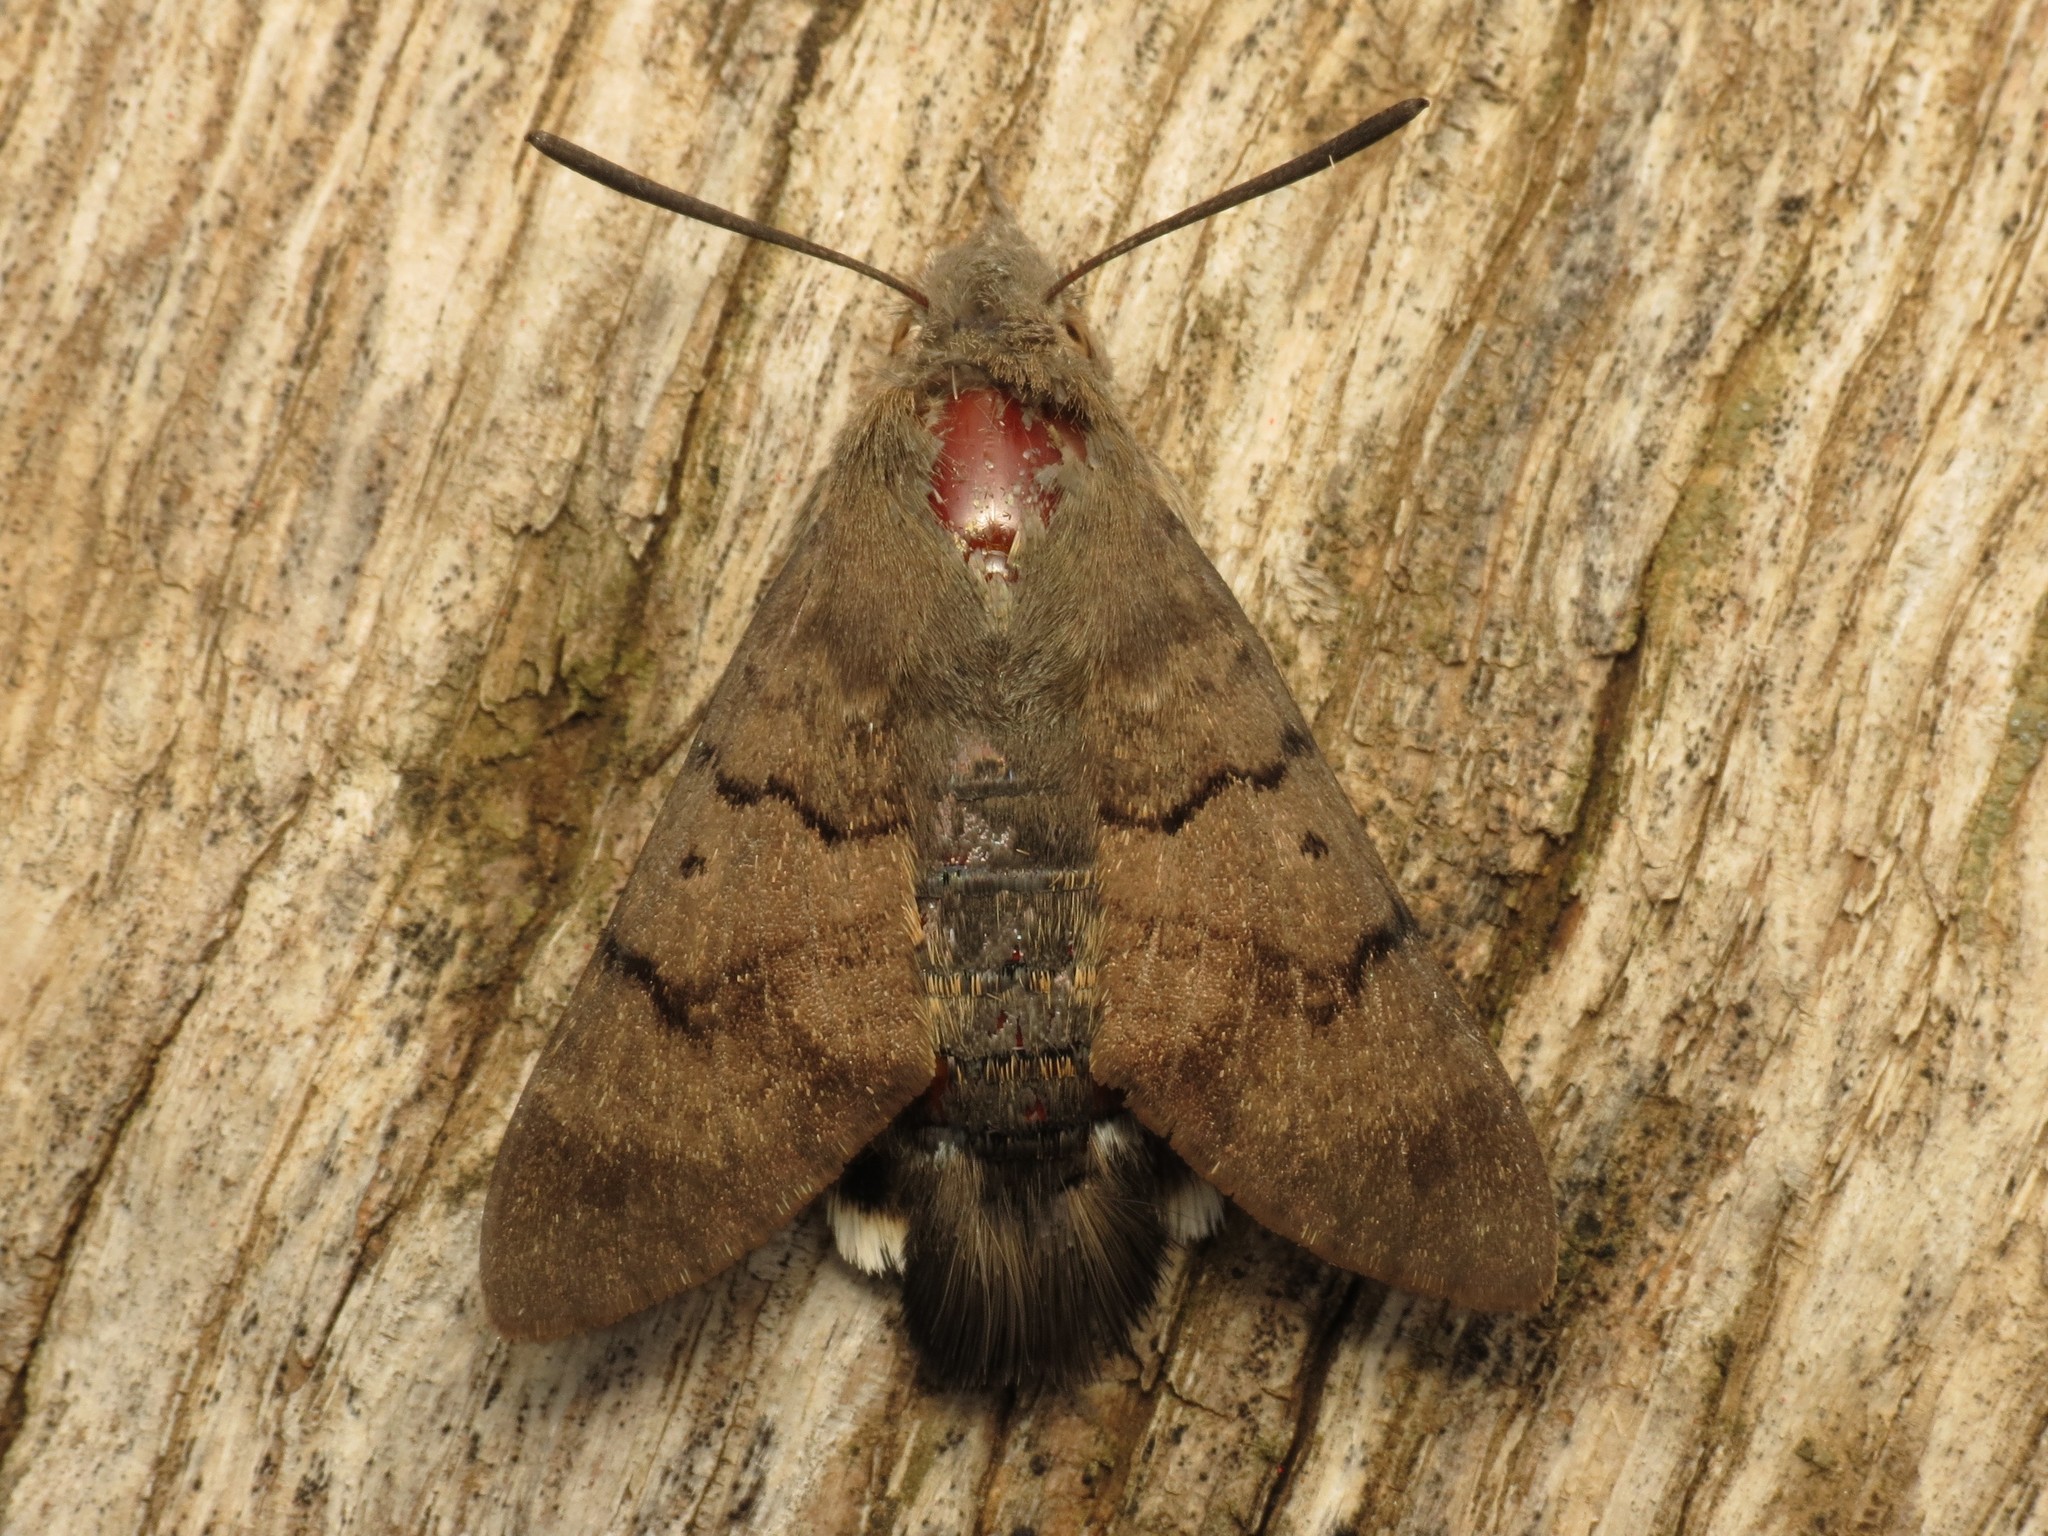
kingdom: Animalia
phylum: Arthropoda
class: Insecta
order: Lepidoptera
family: Sphingidae
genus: Macroglossum
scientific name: Macroglossum stellatarum
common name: Humming-bird hawk-moth
